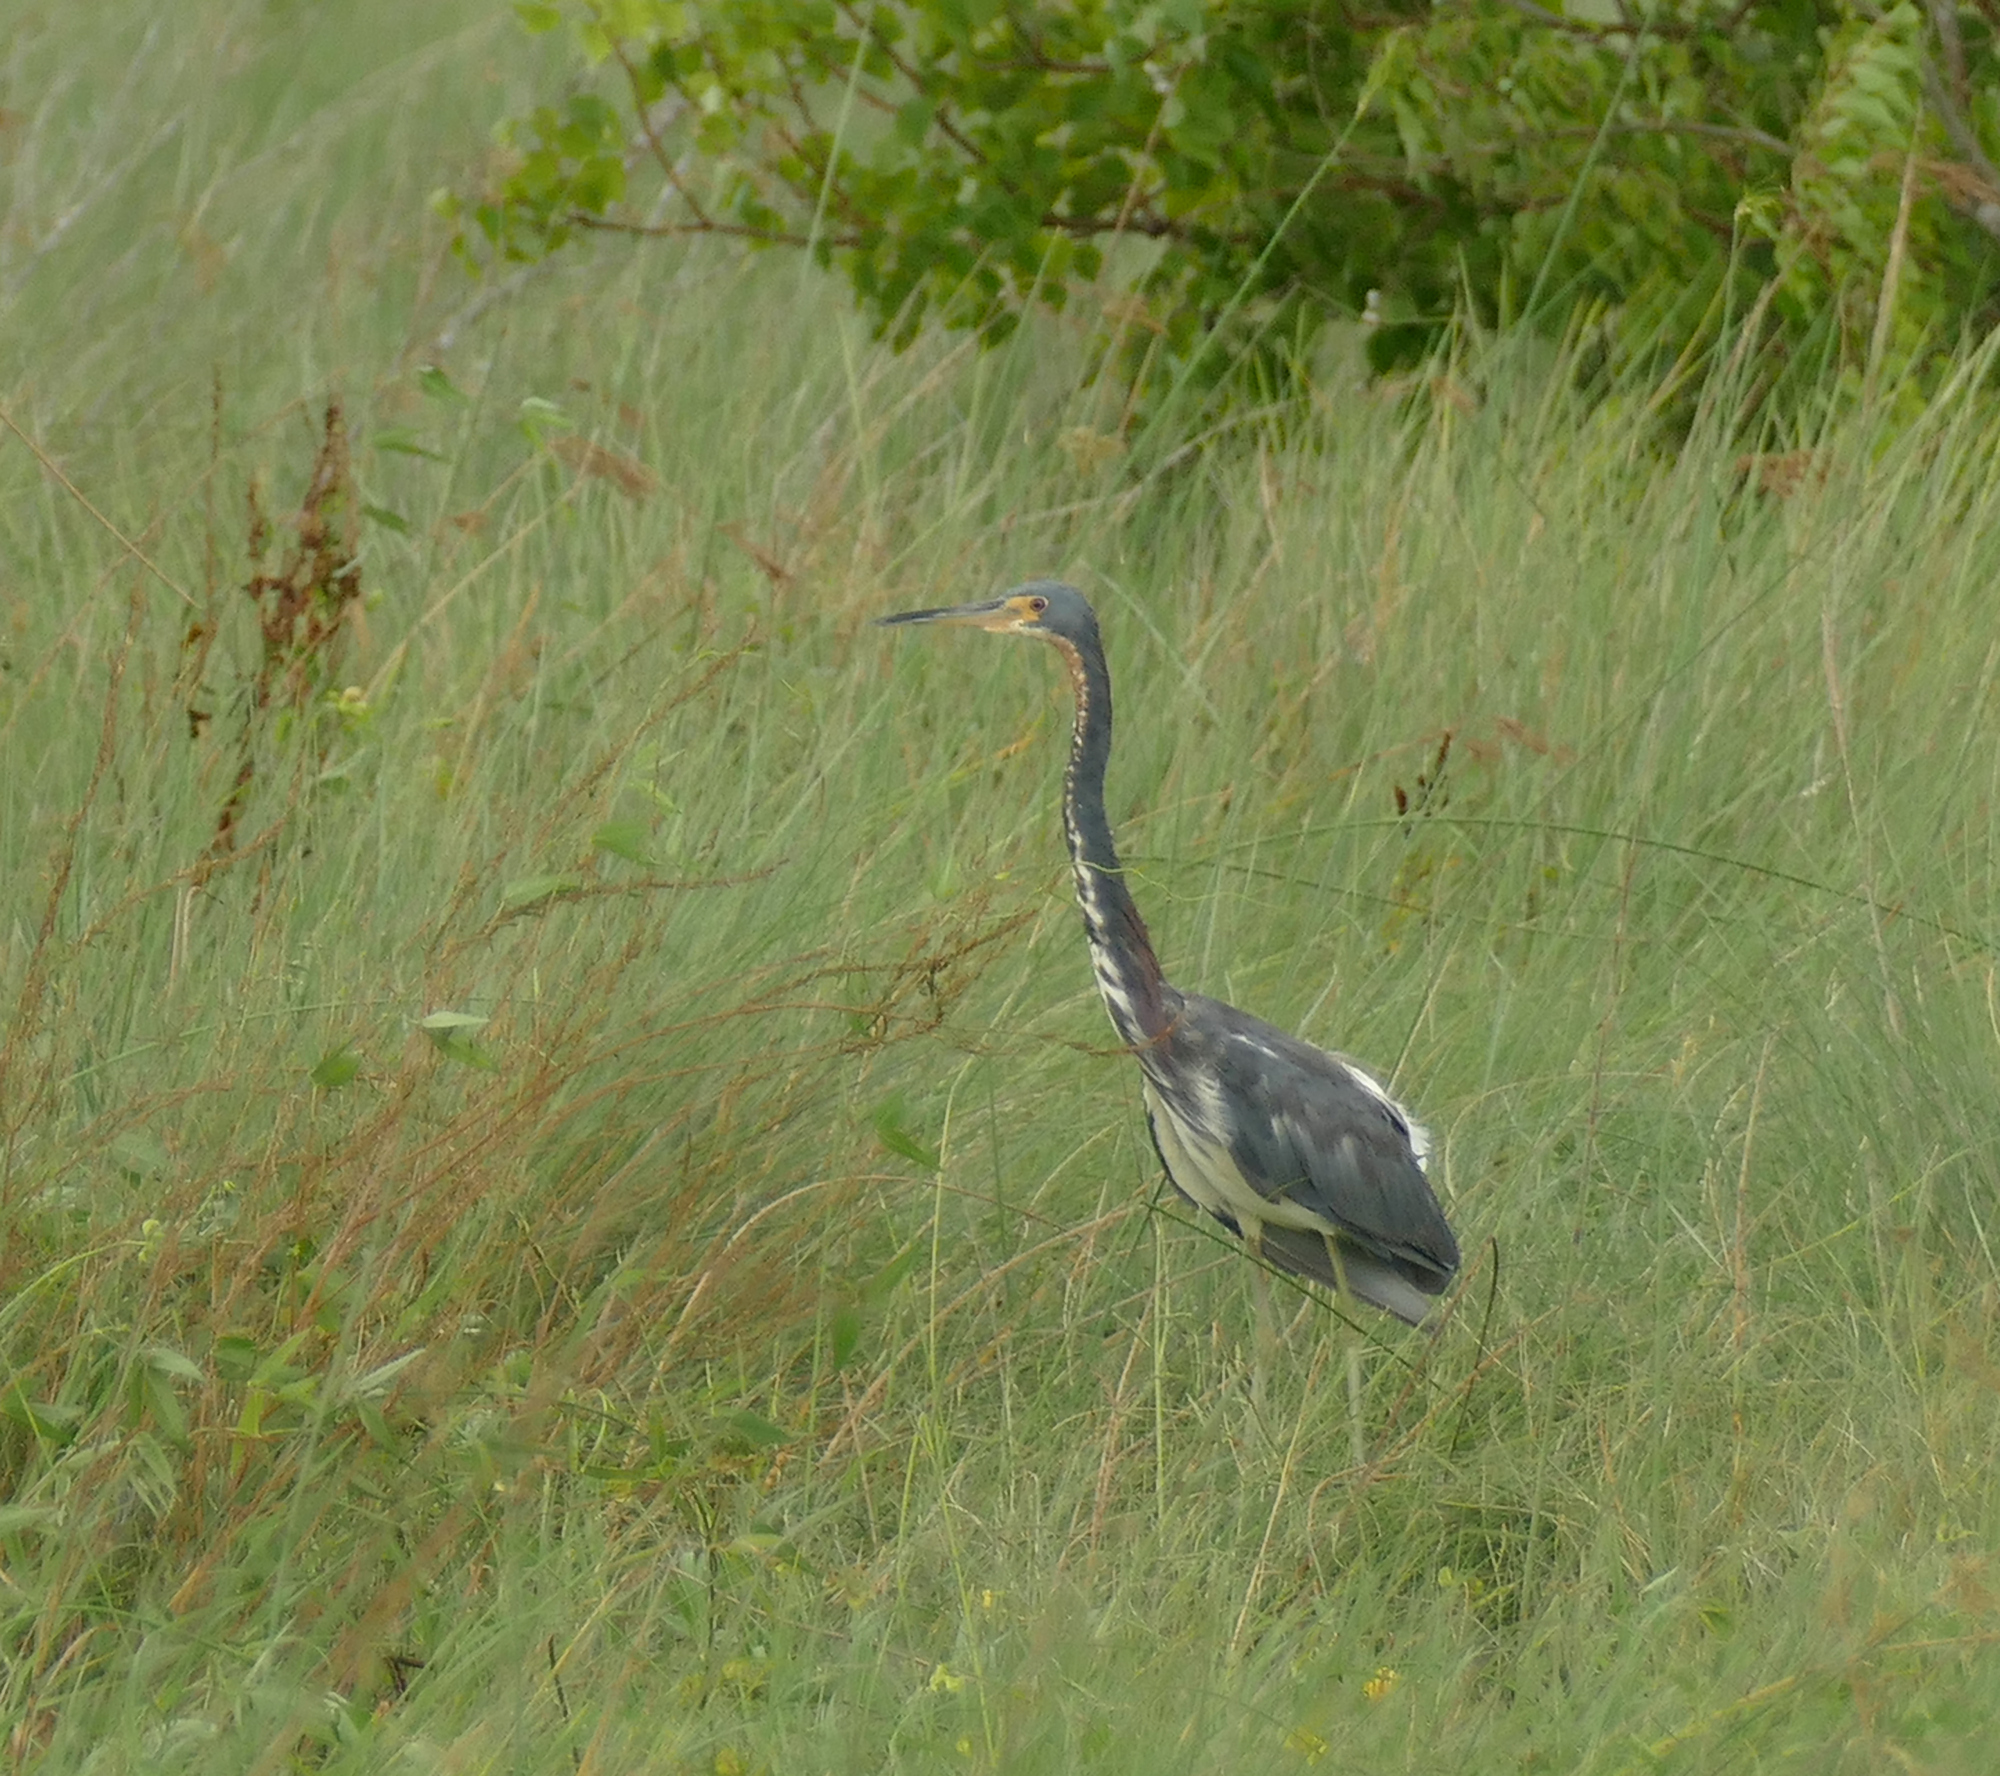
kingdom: Animalia
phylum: Chordata
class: Aves
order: Pelecaniformes
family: Ardeidae
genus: Egretta
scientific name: Egretta tricolor
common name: Tricolored heron
